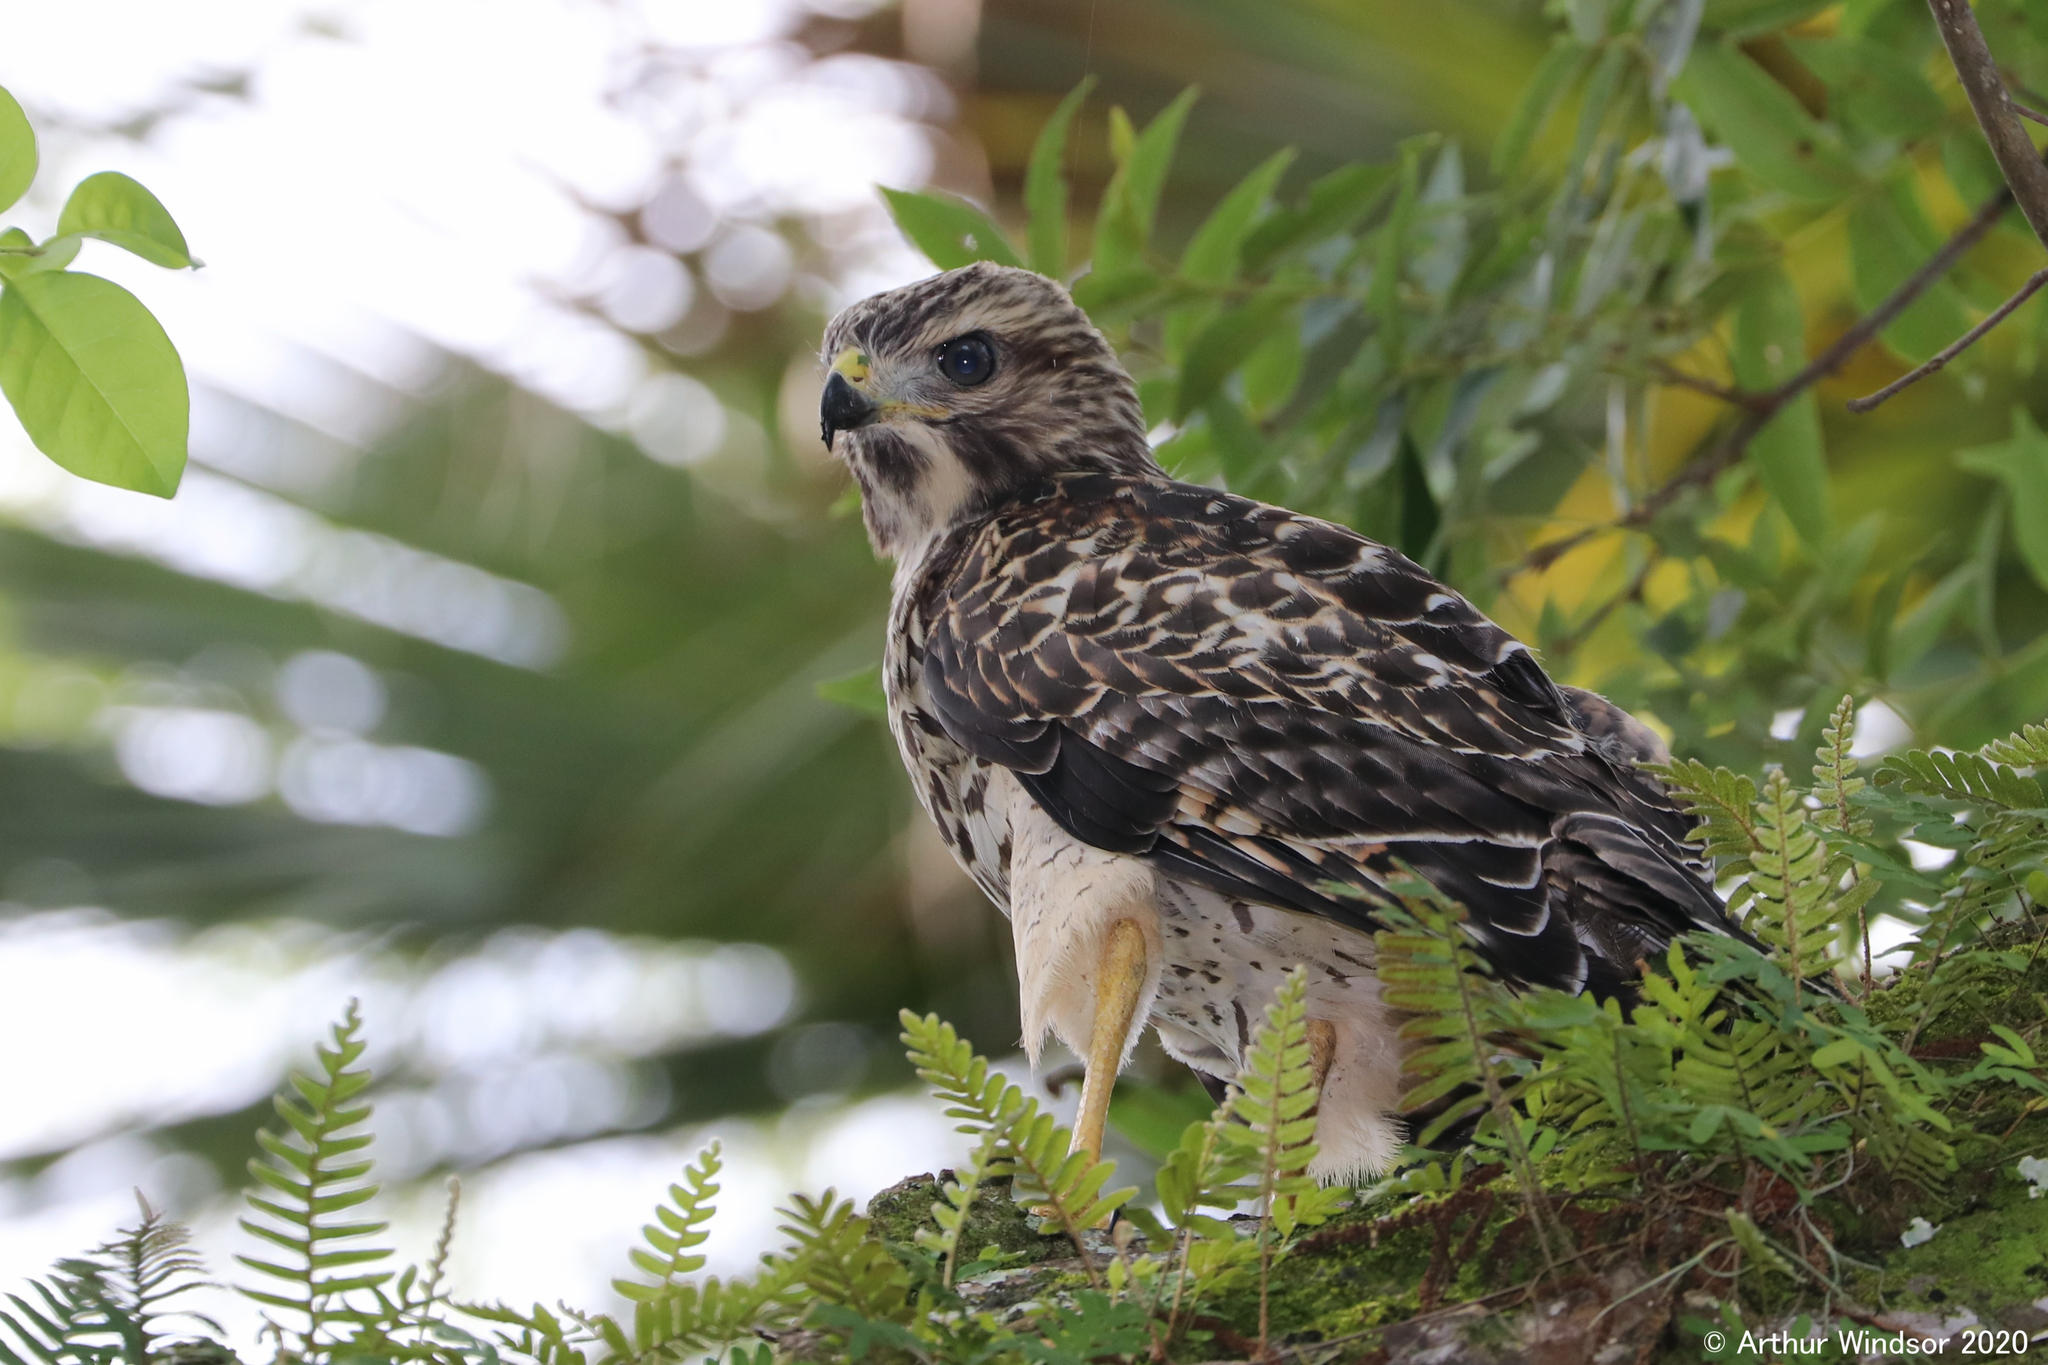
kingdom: Animalia
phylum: Chordata
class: Aves
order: Accipitriformes
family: Accipitridae
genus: Buteo
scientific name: Buteo lineatus
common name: Red-shouldered hawk
